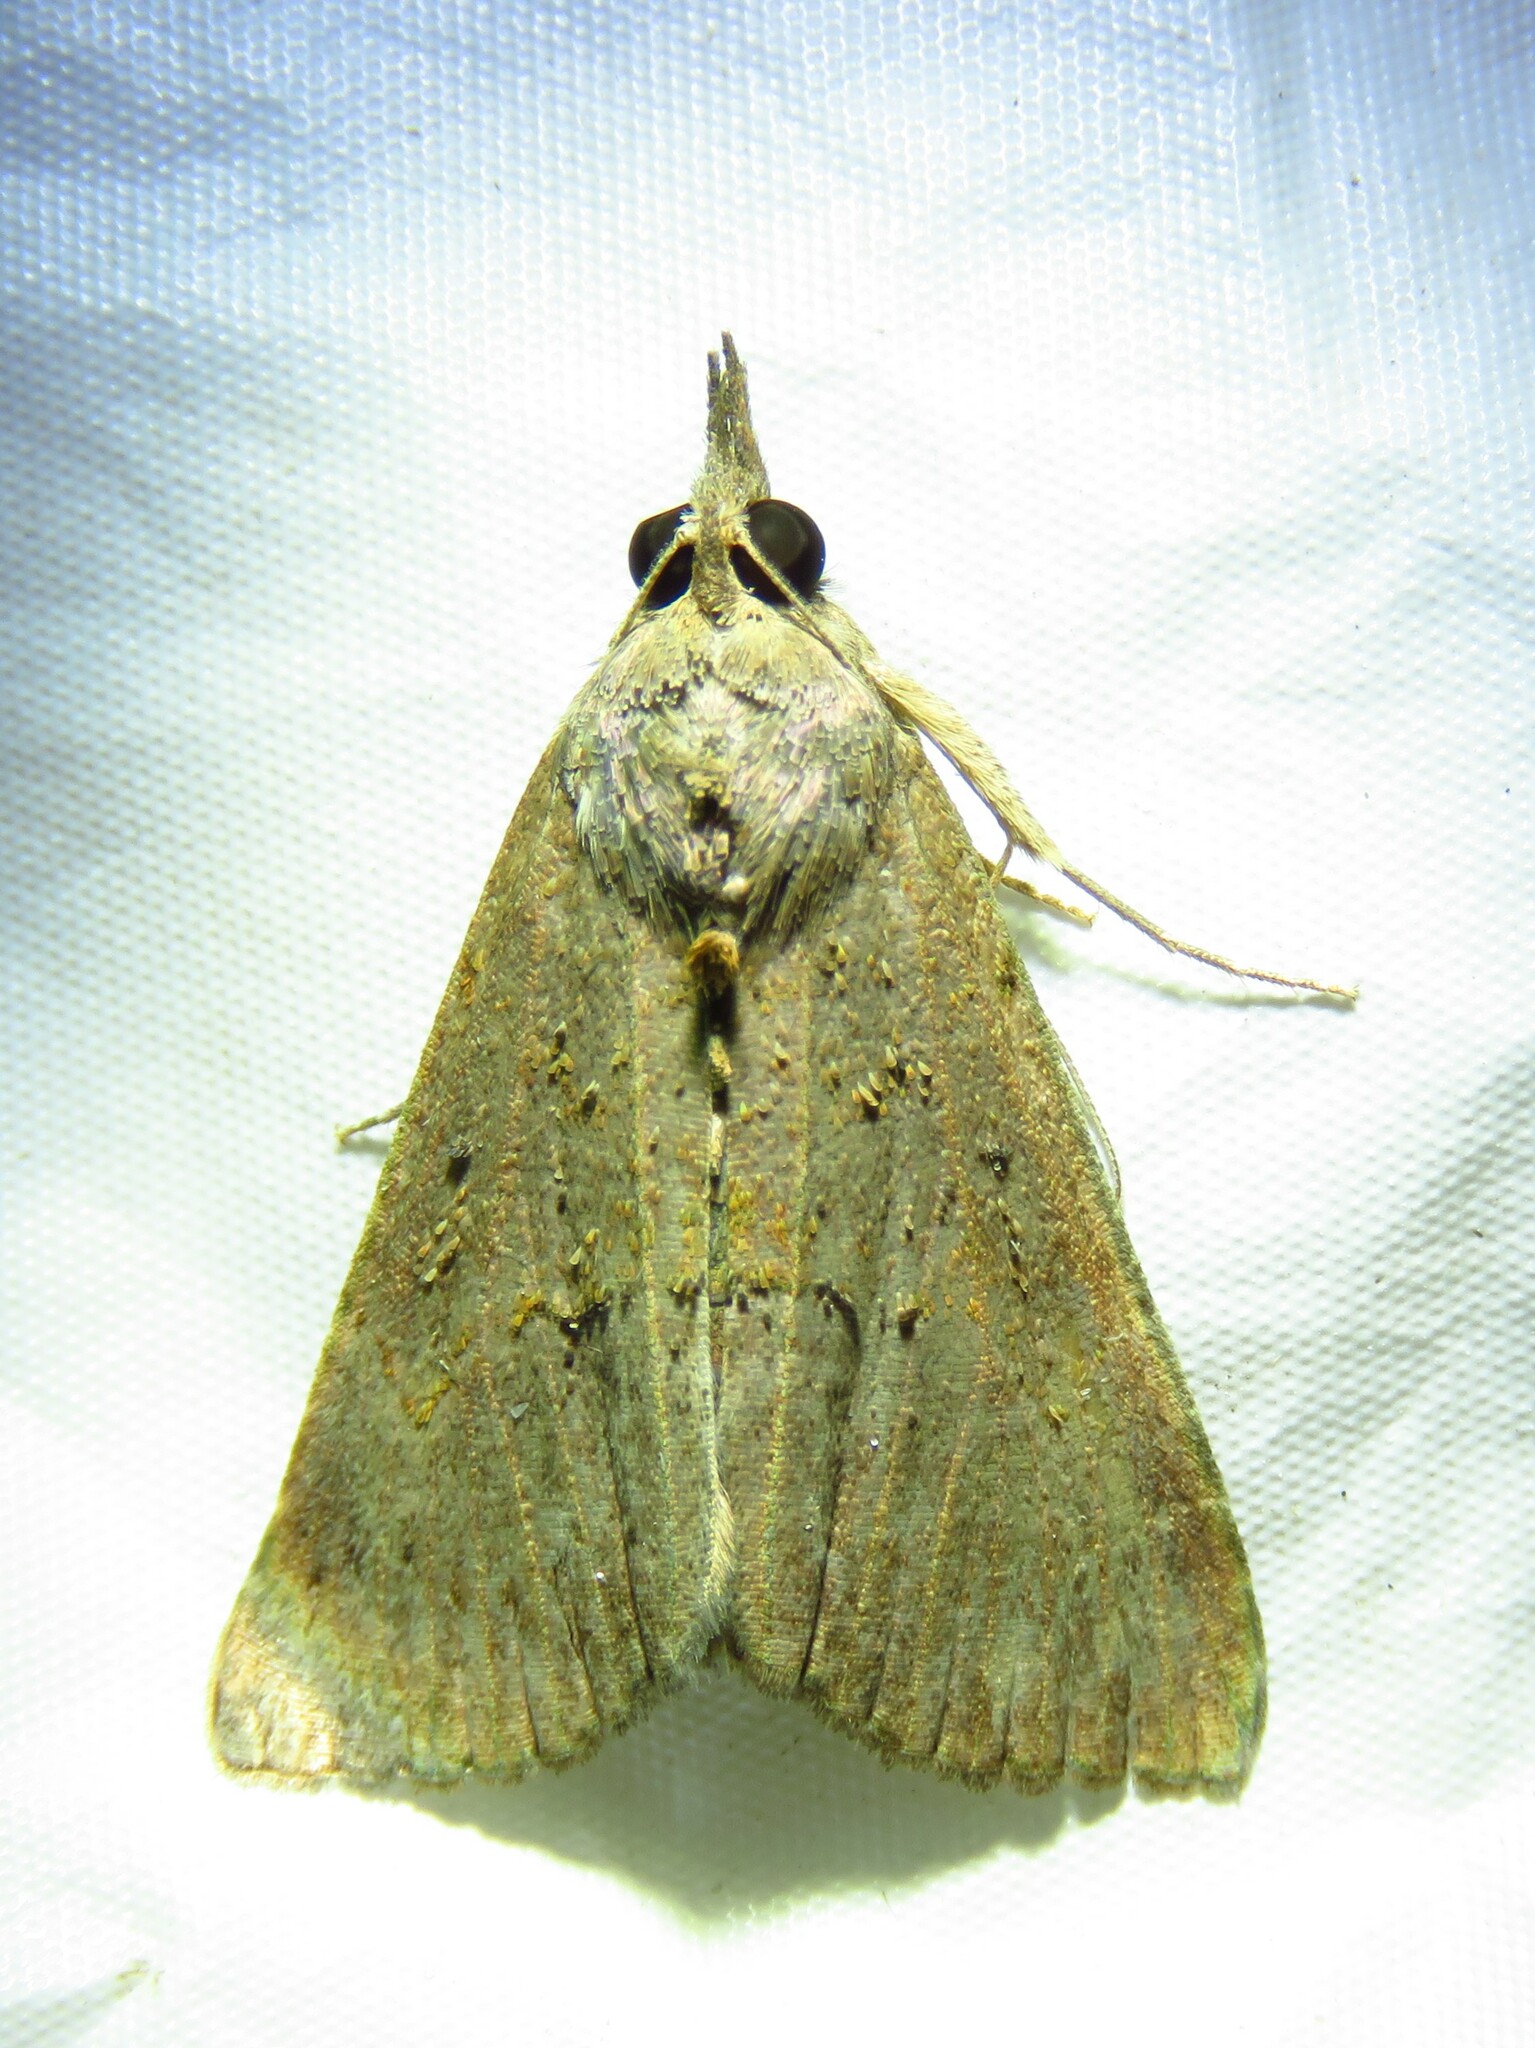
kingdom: Animalia
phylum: Arthropoda
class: Insecta
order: Lepidoptera
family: Erebidae
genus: Hypena
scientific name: Hypena scabra
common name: Green cloverworm
